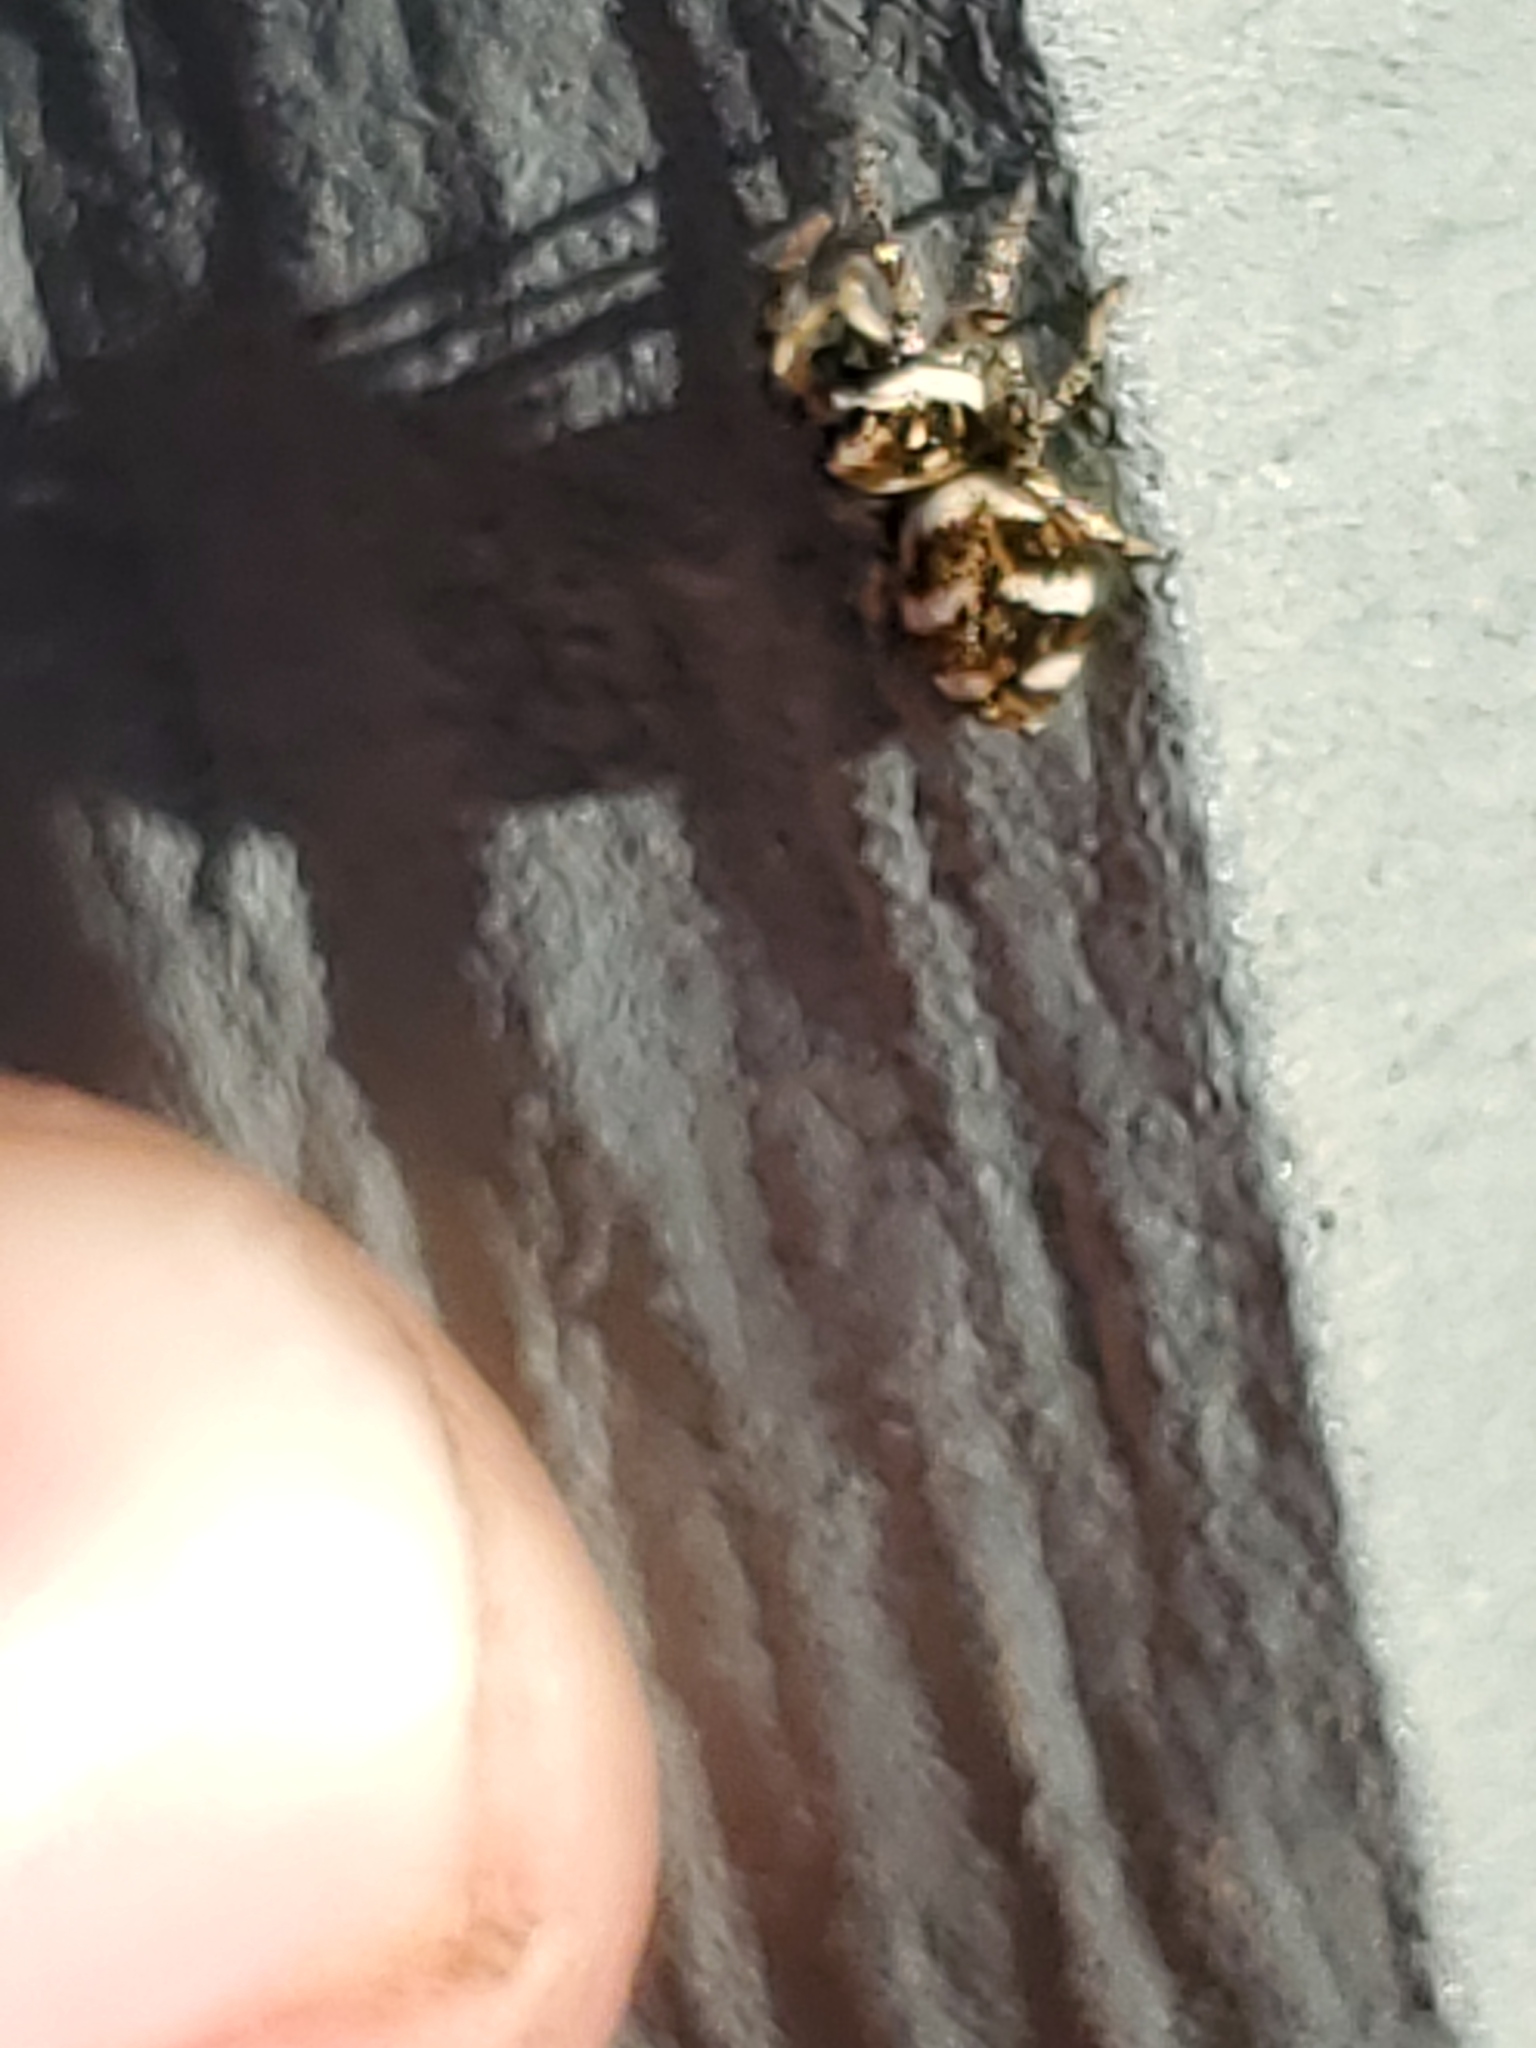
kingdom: Animalia
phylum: Arthropoda
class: Arachnida
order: Araneae
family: Salticidae
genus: Salticus
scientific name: Salticus scenicus
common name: Zebra jumper
